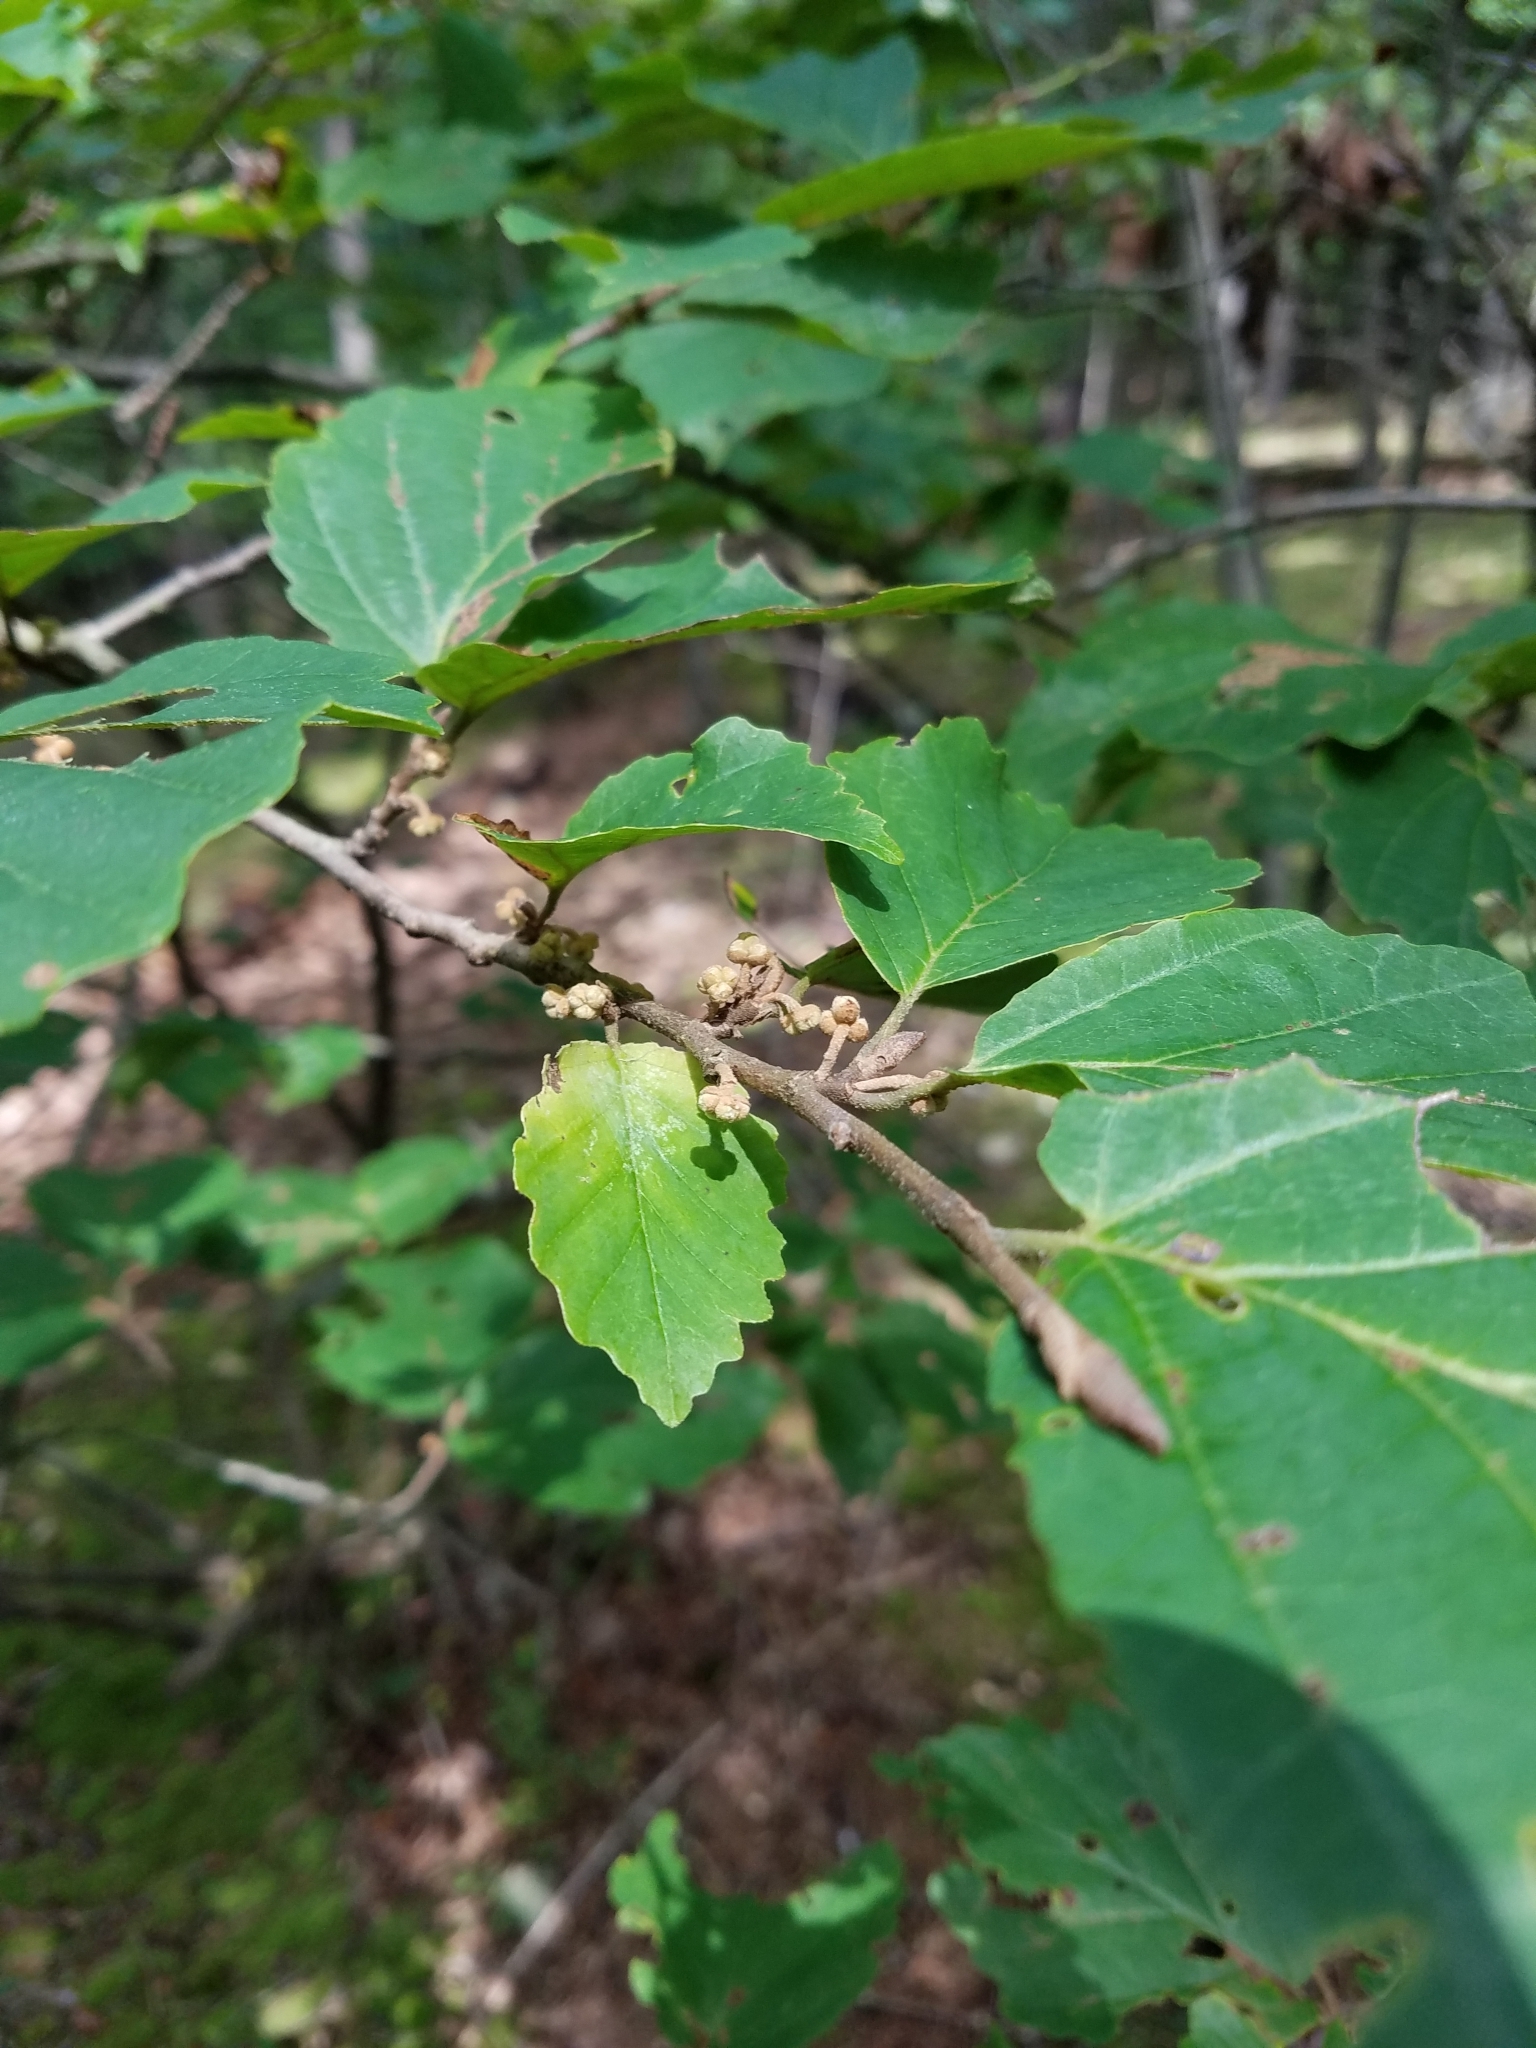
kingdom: Plantae
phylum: Tracheophyta
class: Magnoliopsida
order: Saxifragales
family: Hamamelidaceae
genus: Hamamelis
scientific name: Hamamelis virginiana
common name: Witch-hazel
